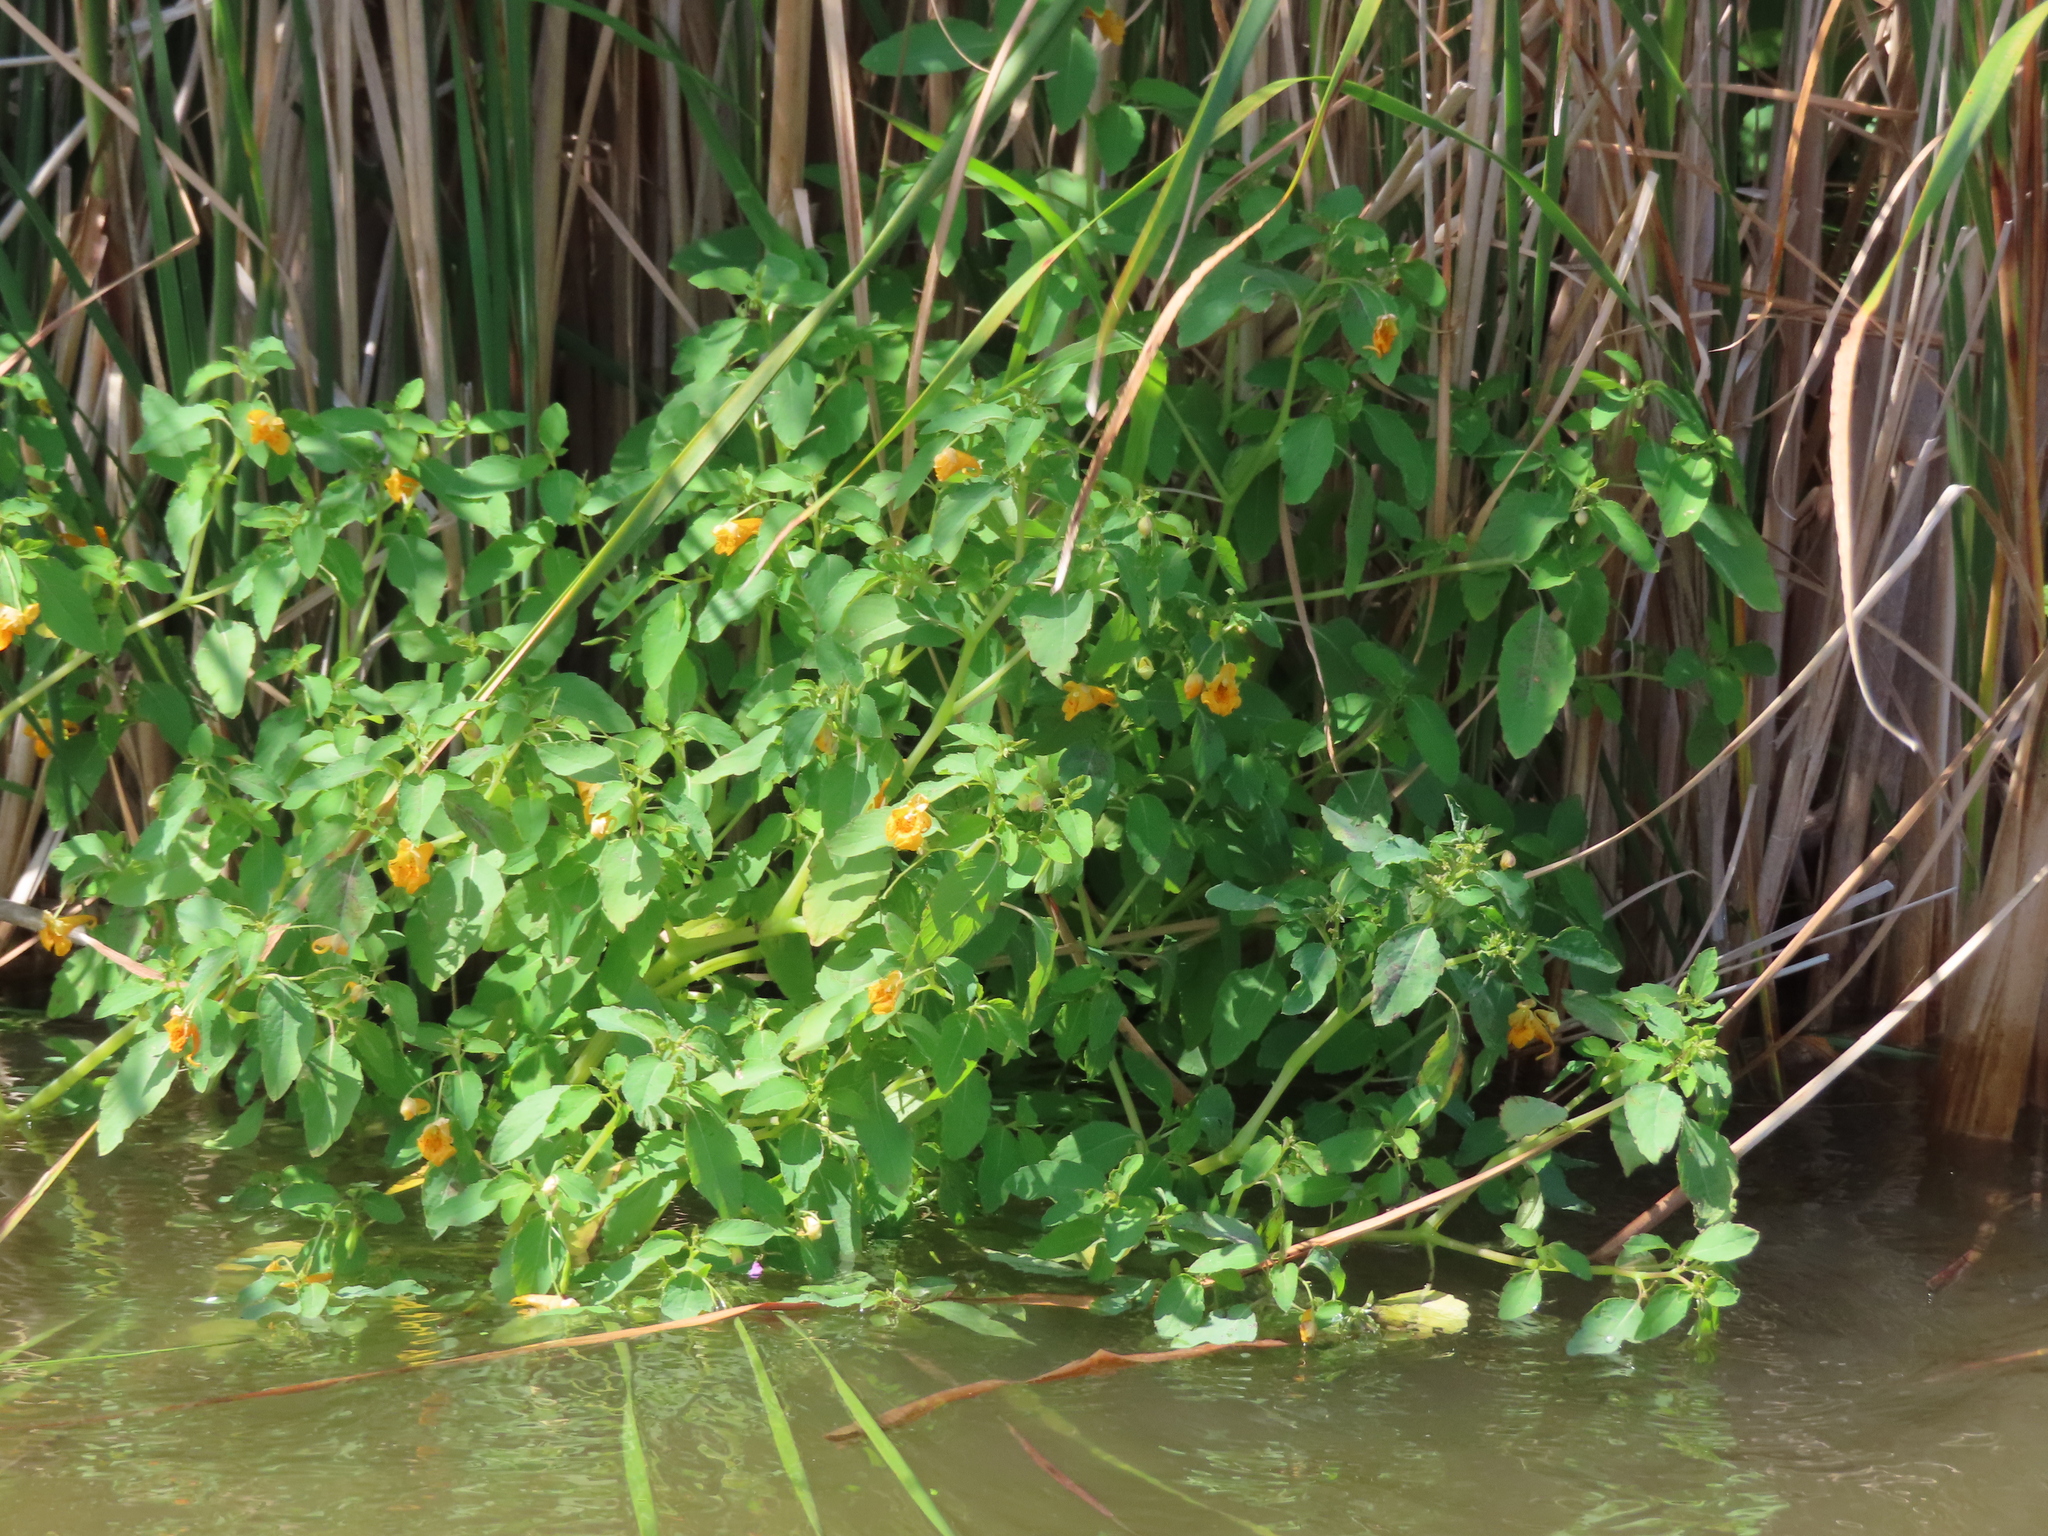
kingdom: Plantae
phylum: Tracheophyta
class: Magnoliopsida
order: Ericales
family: Balsaminaceae
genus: Impatiens
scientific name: Impatiens capensis
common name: Orange balsam
